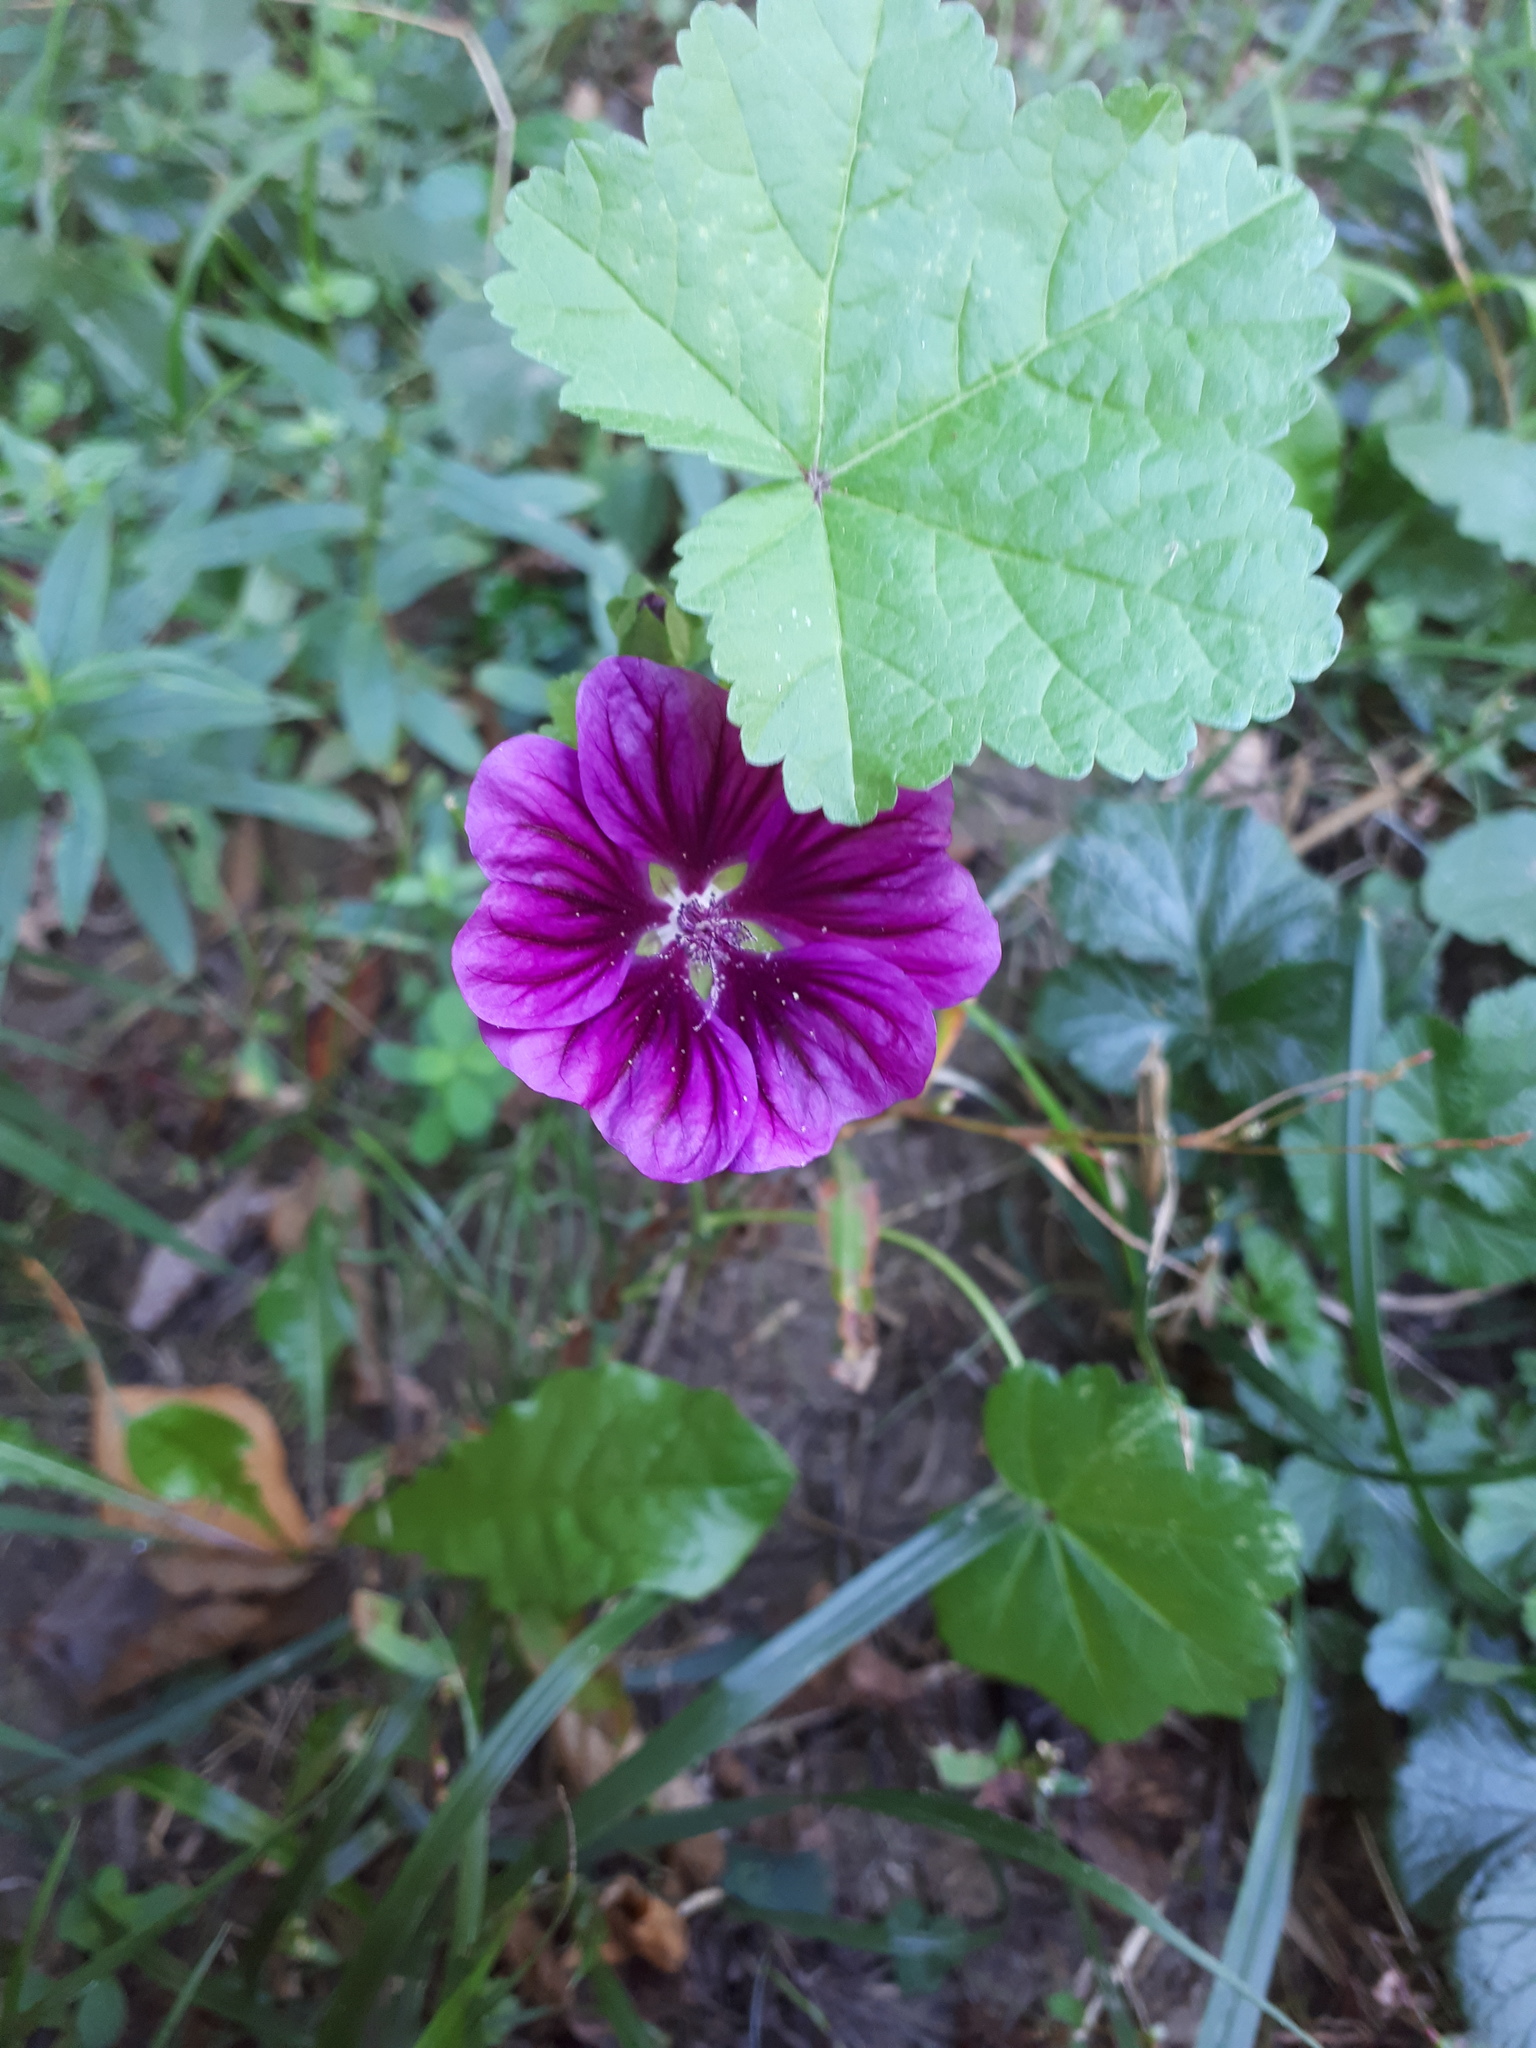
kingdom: Plantae
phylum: Tracheophyta
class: Magnoliopsida
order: Malvales
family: Malvaceae
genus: Malva
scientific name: Malva sylvestris
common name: Common mallow
